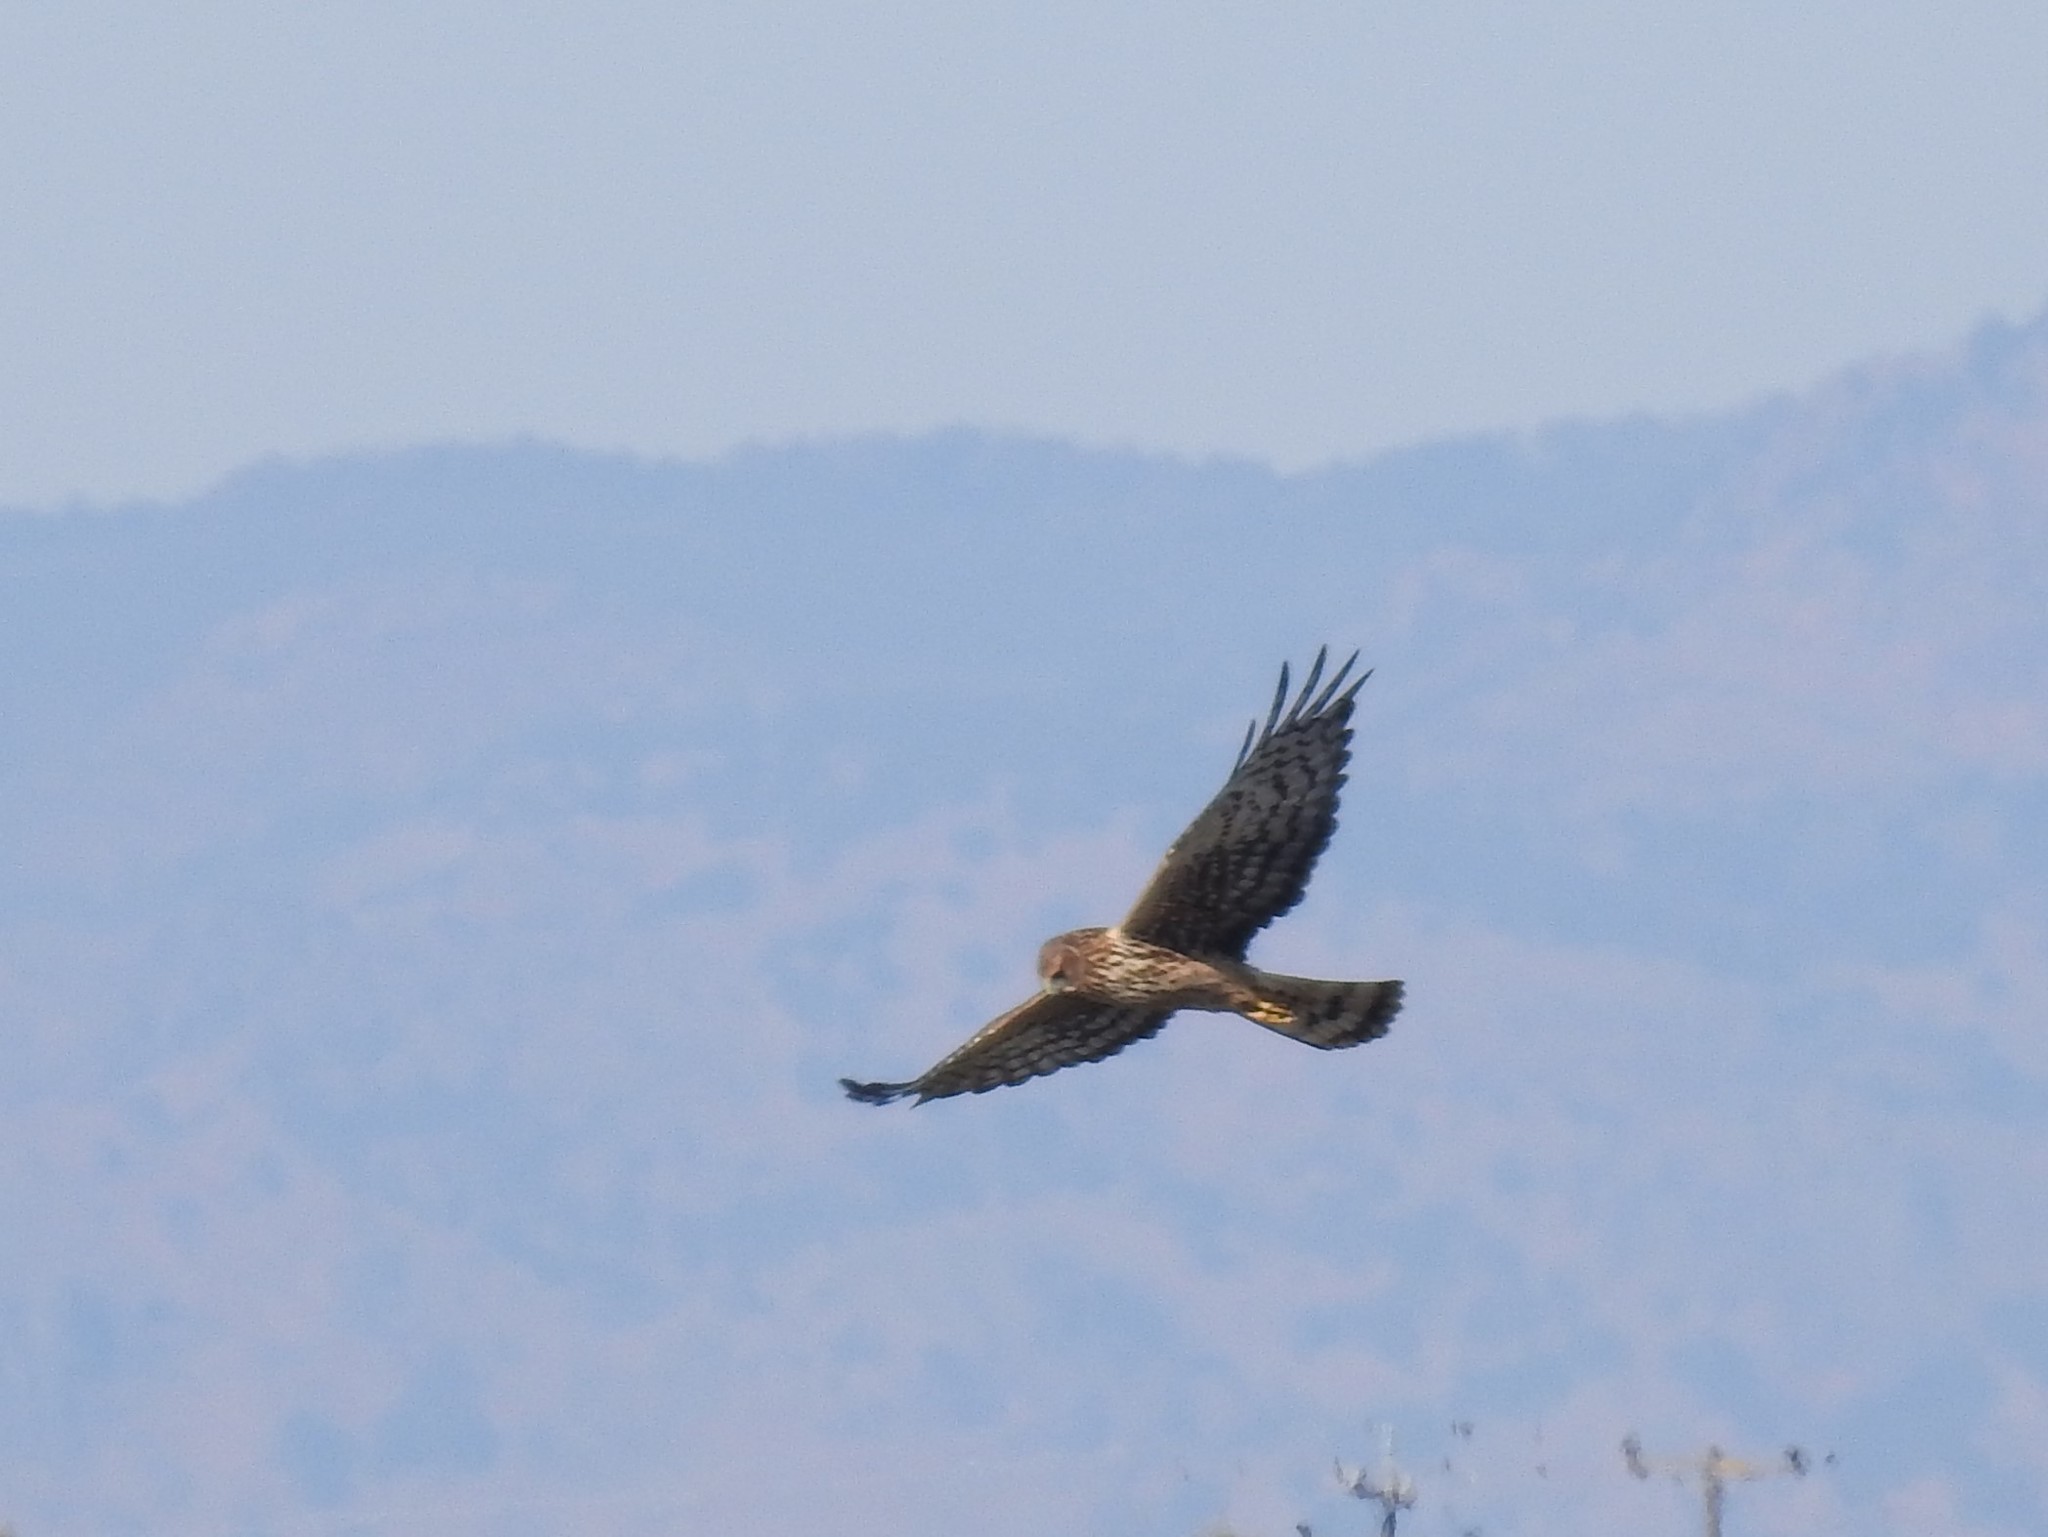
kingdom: Animalia
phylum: Chordata
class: Aves
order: Accipitriformes
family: Accipitridae
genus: Circus
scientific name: Circus cyaneus
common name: Hen harrier
